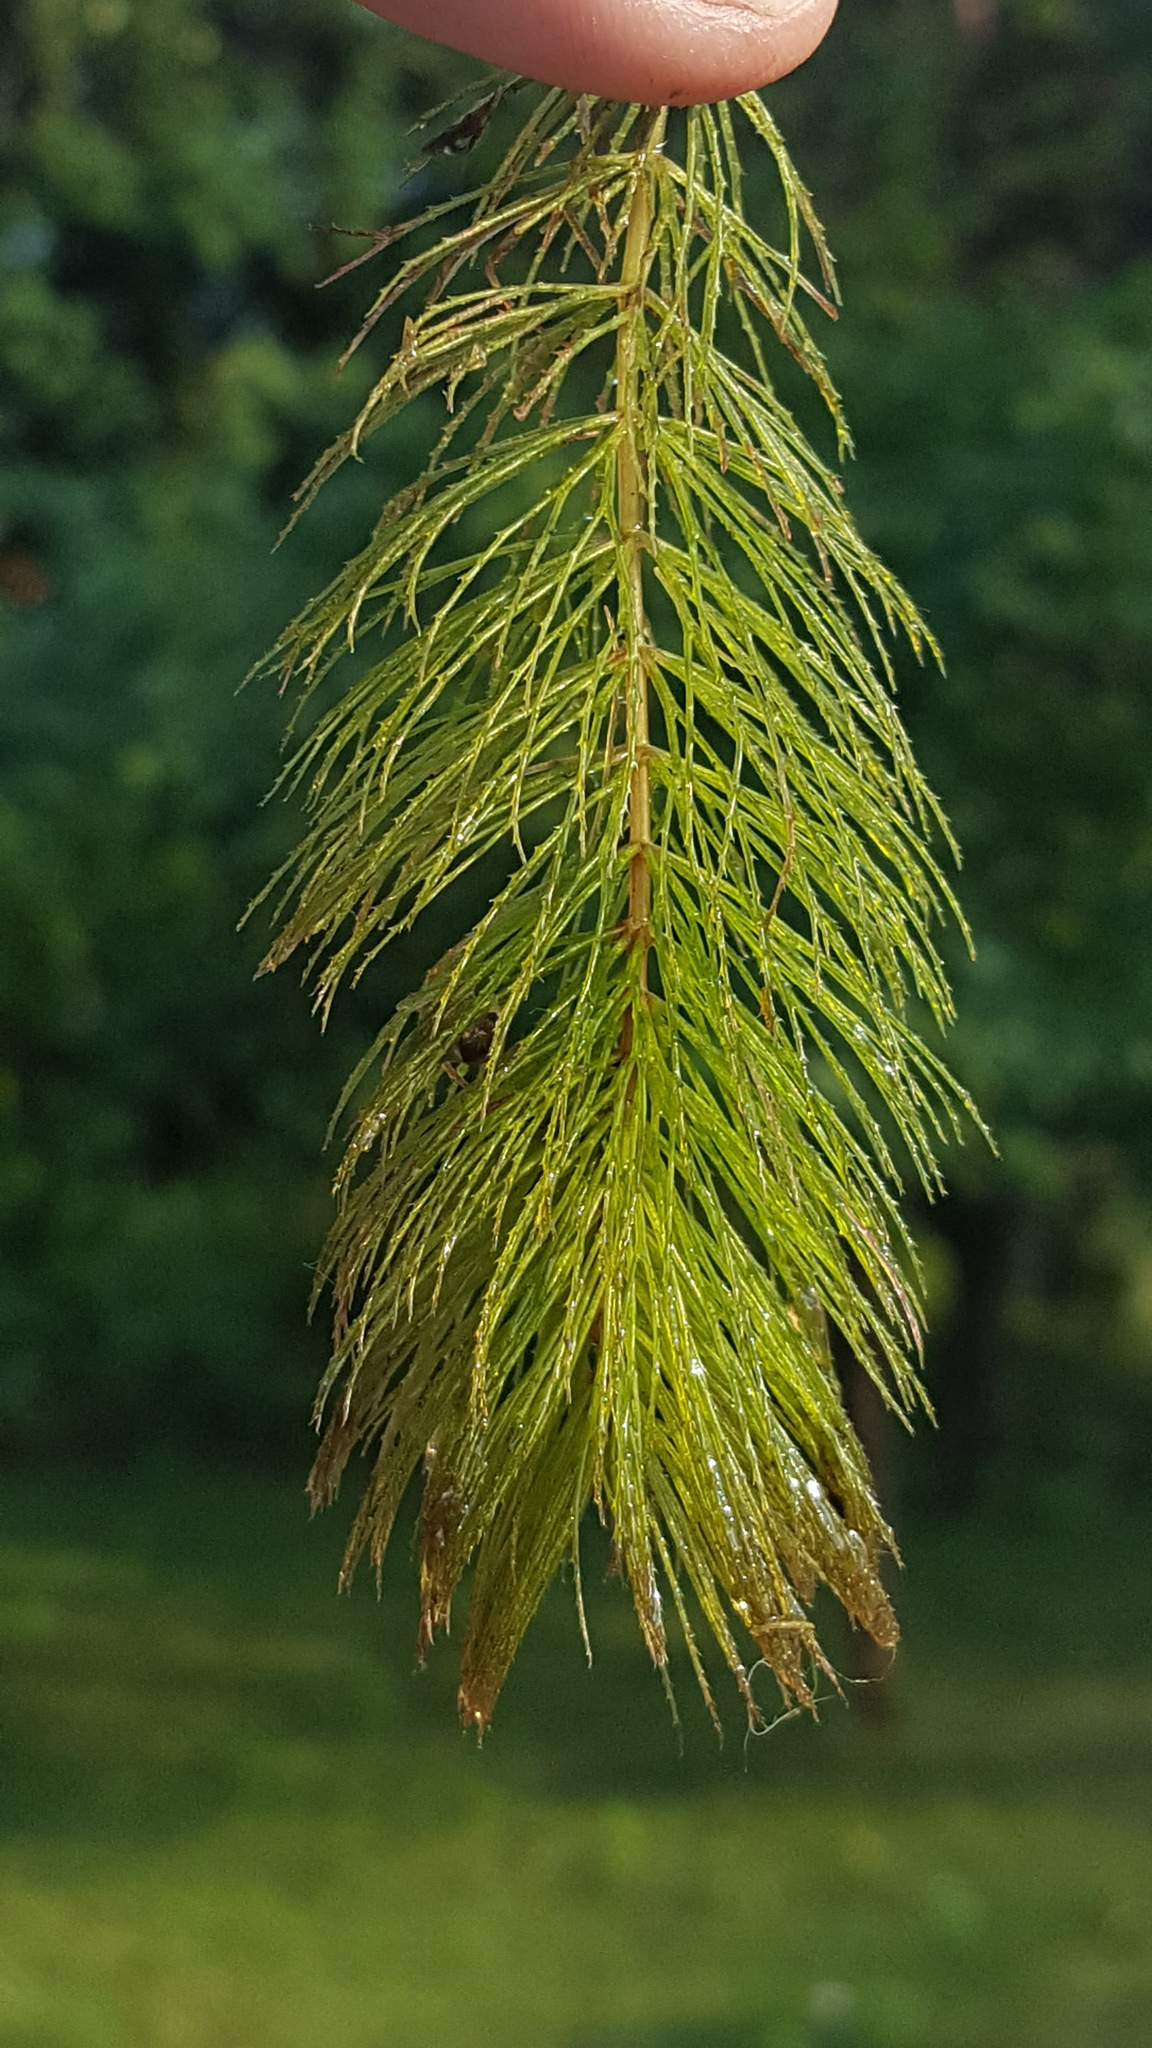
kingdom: Plantae
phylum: Tracheophyta
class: Magnoliopsida
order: Ceratophyllales
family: Ceratophyllaceae
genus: Ceratophyllum
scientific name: Ceratophyllum demersum
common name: Rigid hornwort
